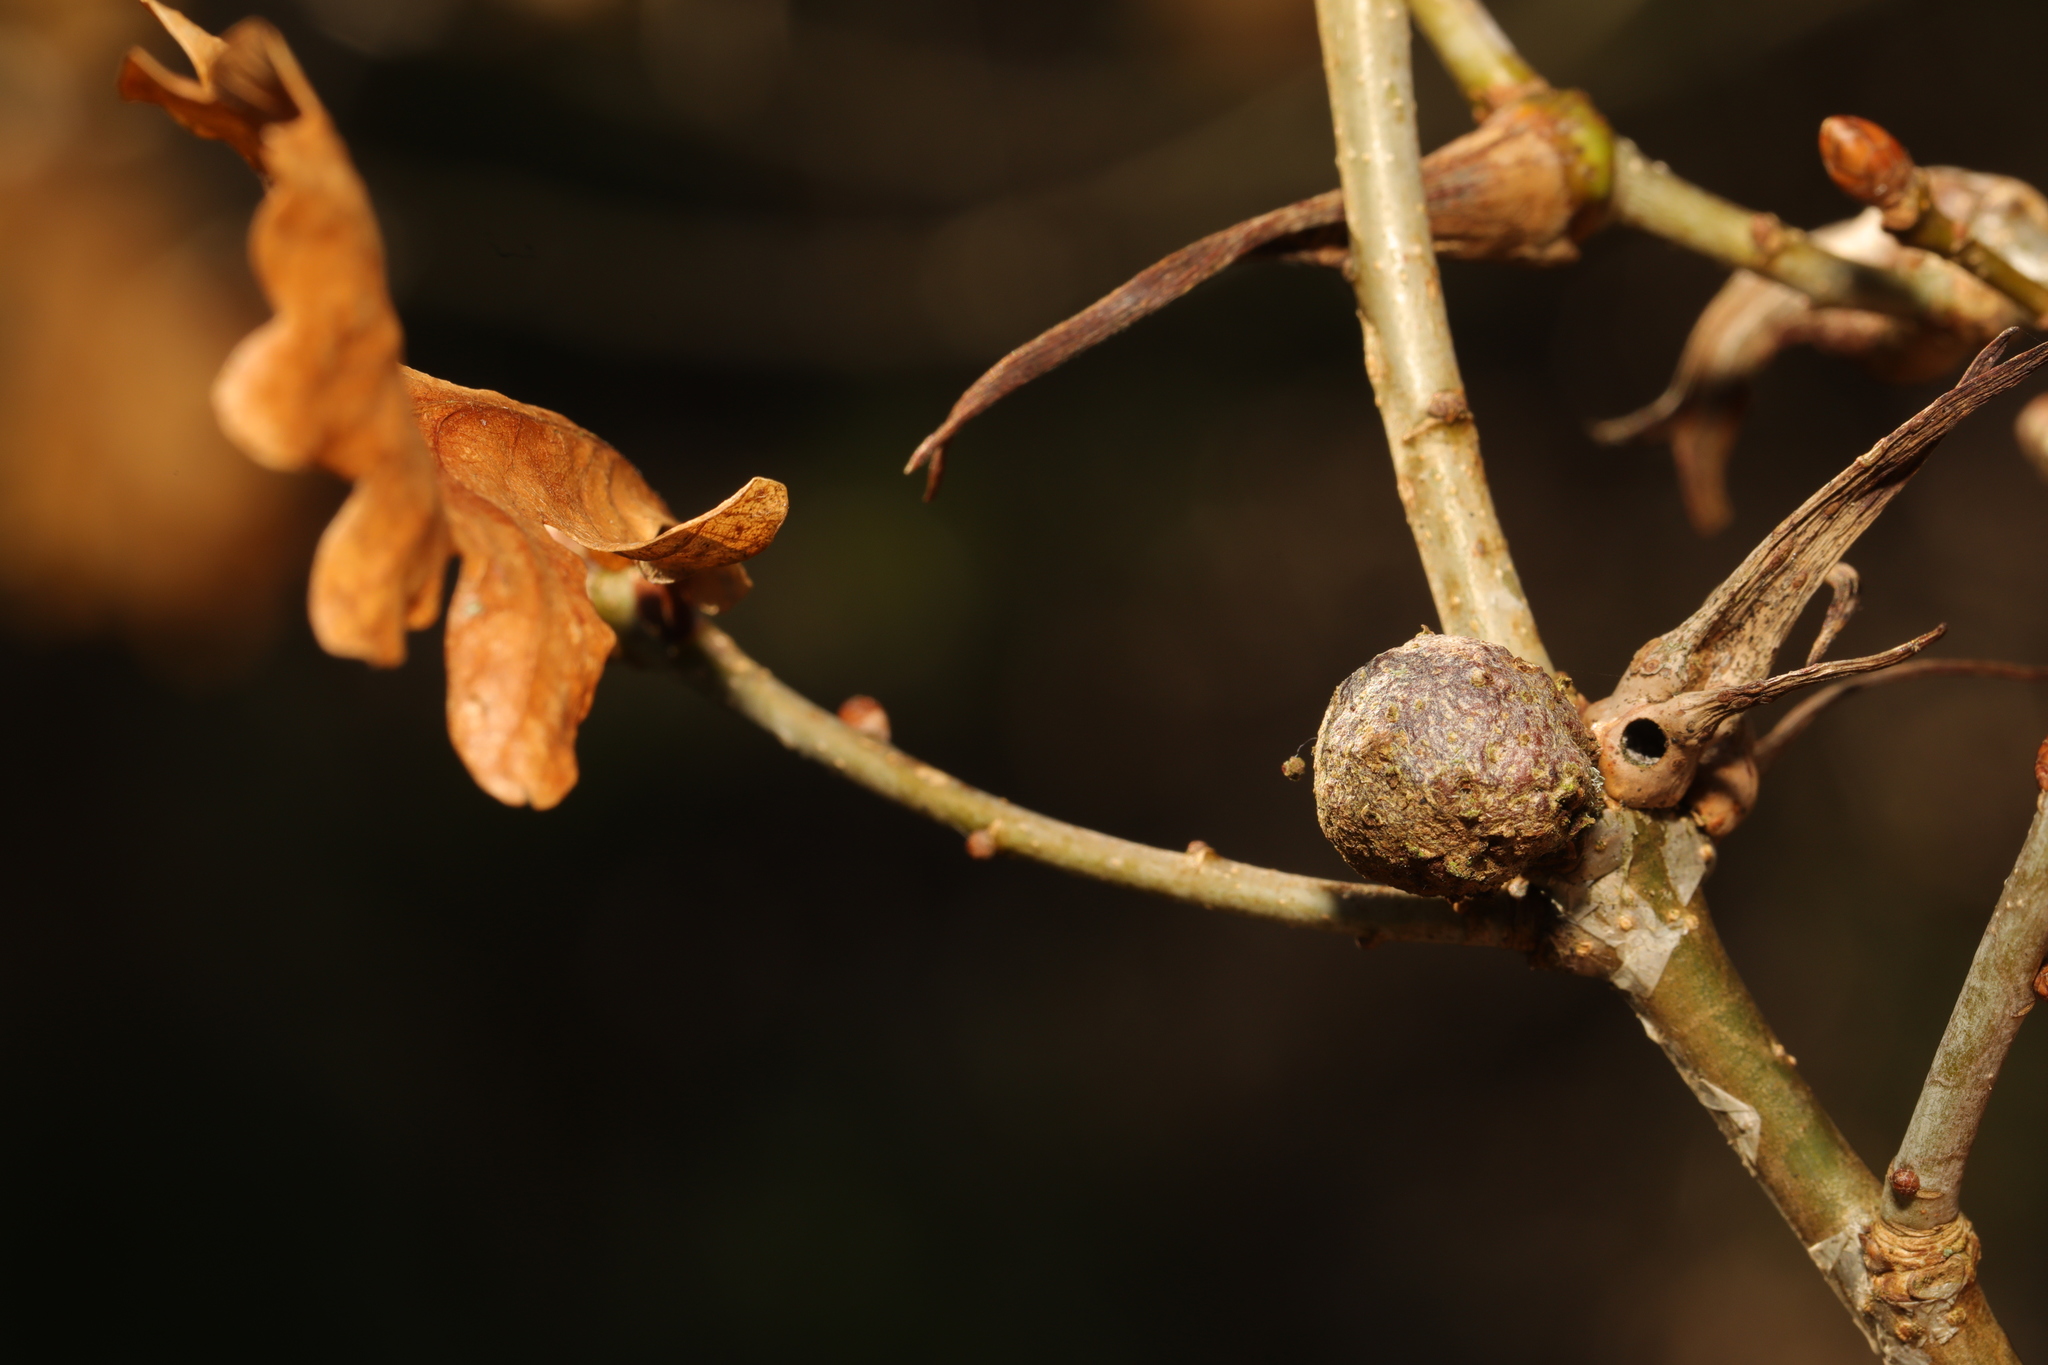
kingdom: Animalia
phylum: Arthropoda
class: Insecta
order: Hymenoptera
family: Cynipidae
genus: Andricus
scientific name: Andricus lignicolus
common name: Cola-nut gall
